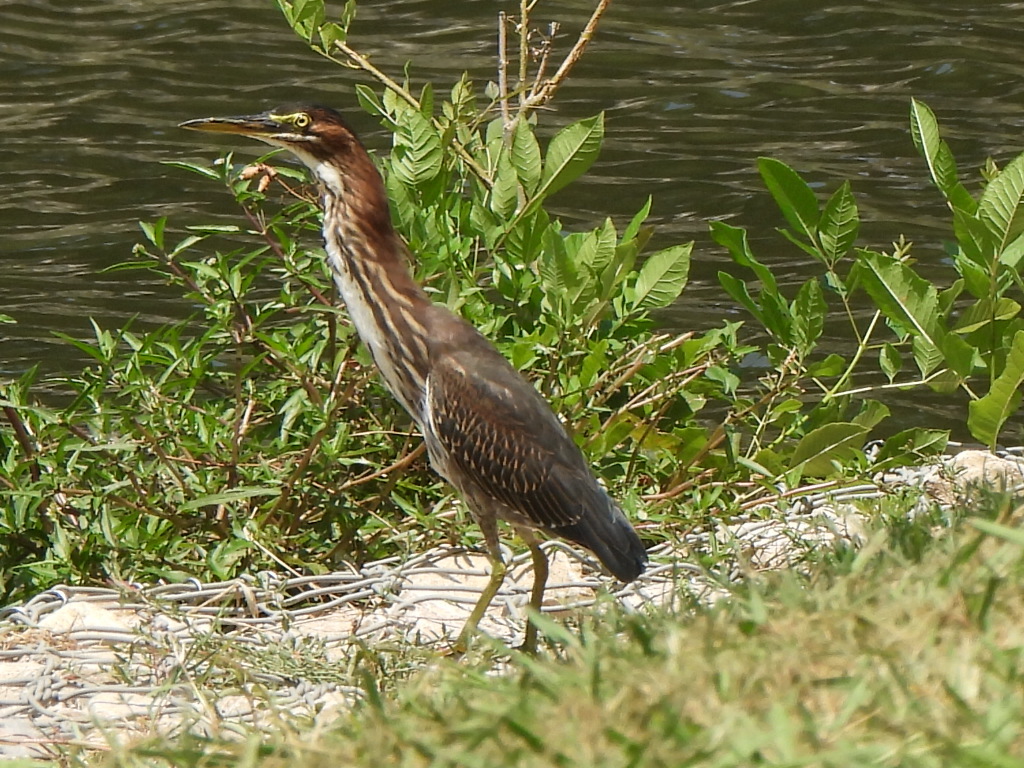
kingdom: Animalia
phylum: Chordata
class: Aves
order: Pelecaniformes
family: Ardeidae
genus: Butorides
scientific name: Butorides virescens
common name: Green heron
